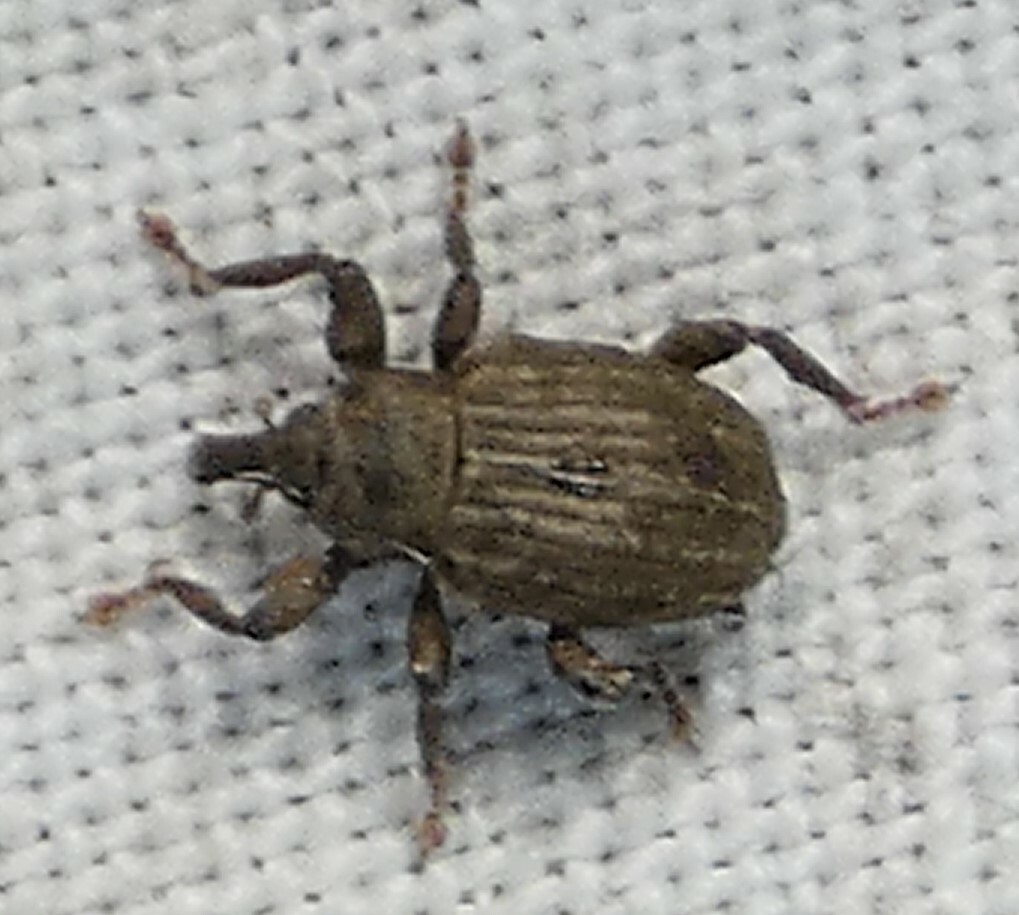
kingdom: Animalia
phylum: Arthropoda
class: Insecta
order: Coleoptera
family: Brachyceridae
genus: Neochetina
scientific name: Neochetina eichhorniae
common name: Weevil
